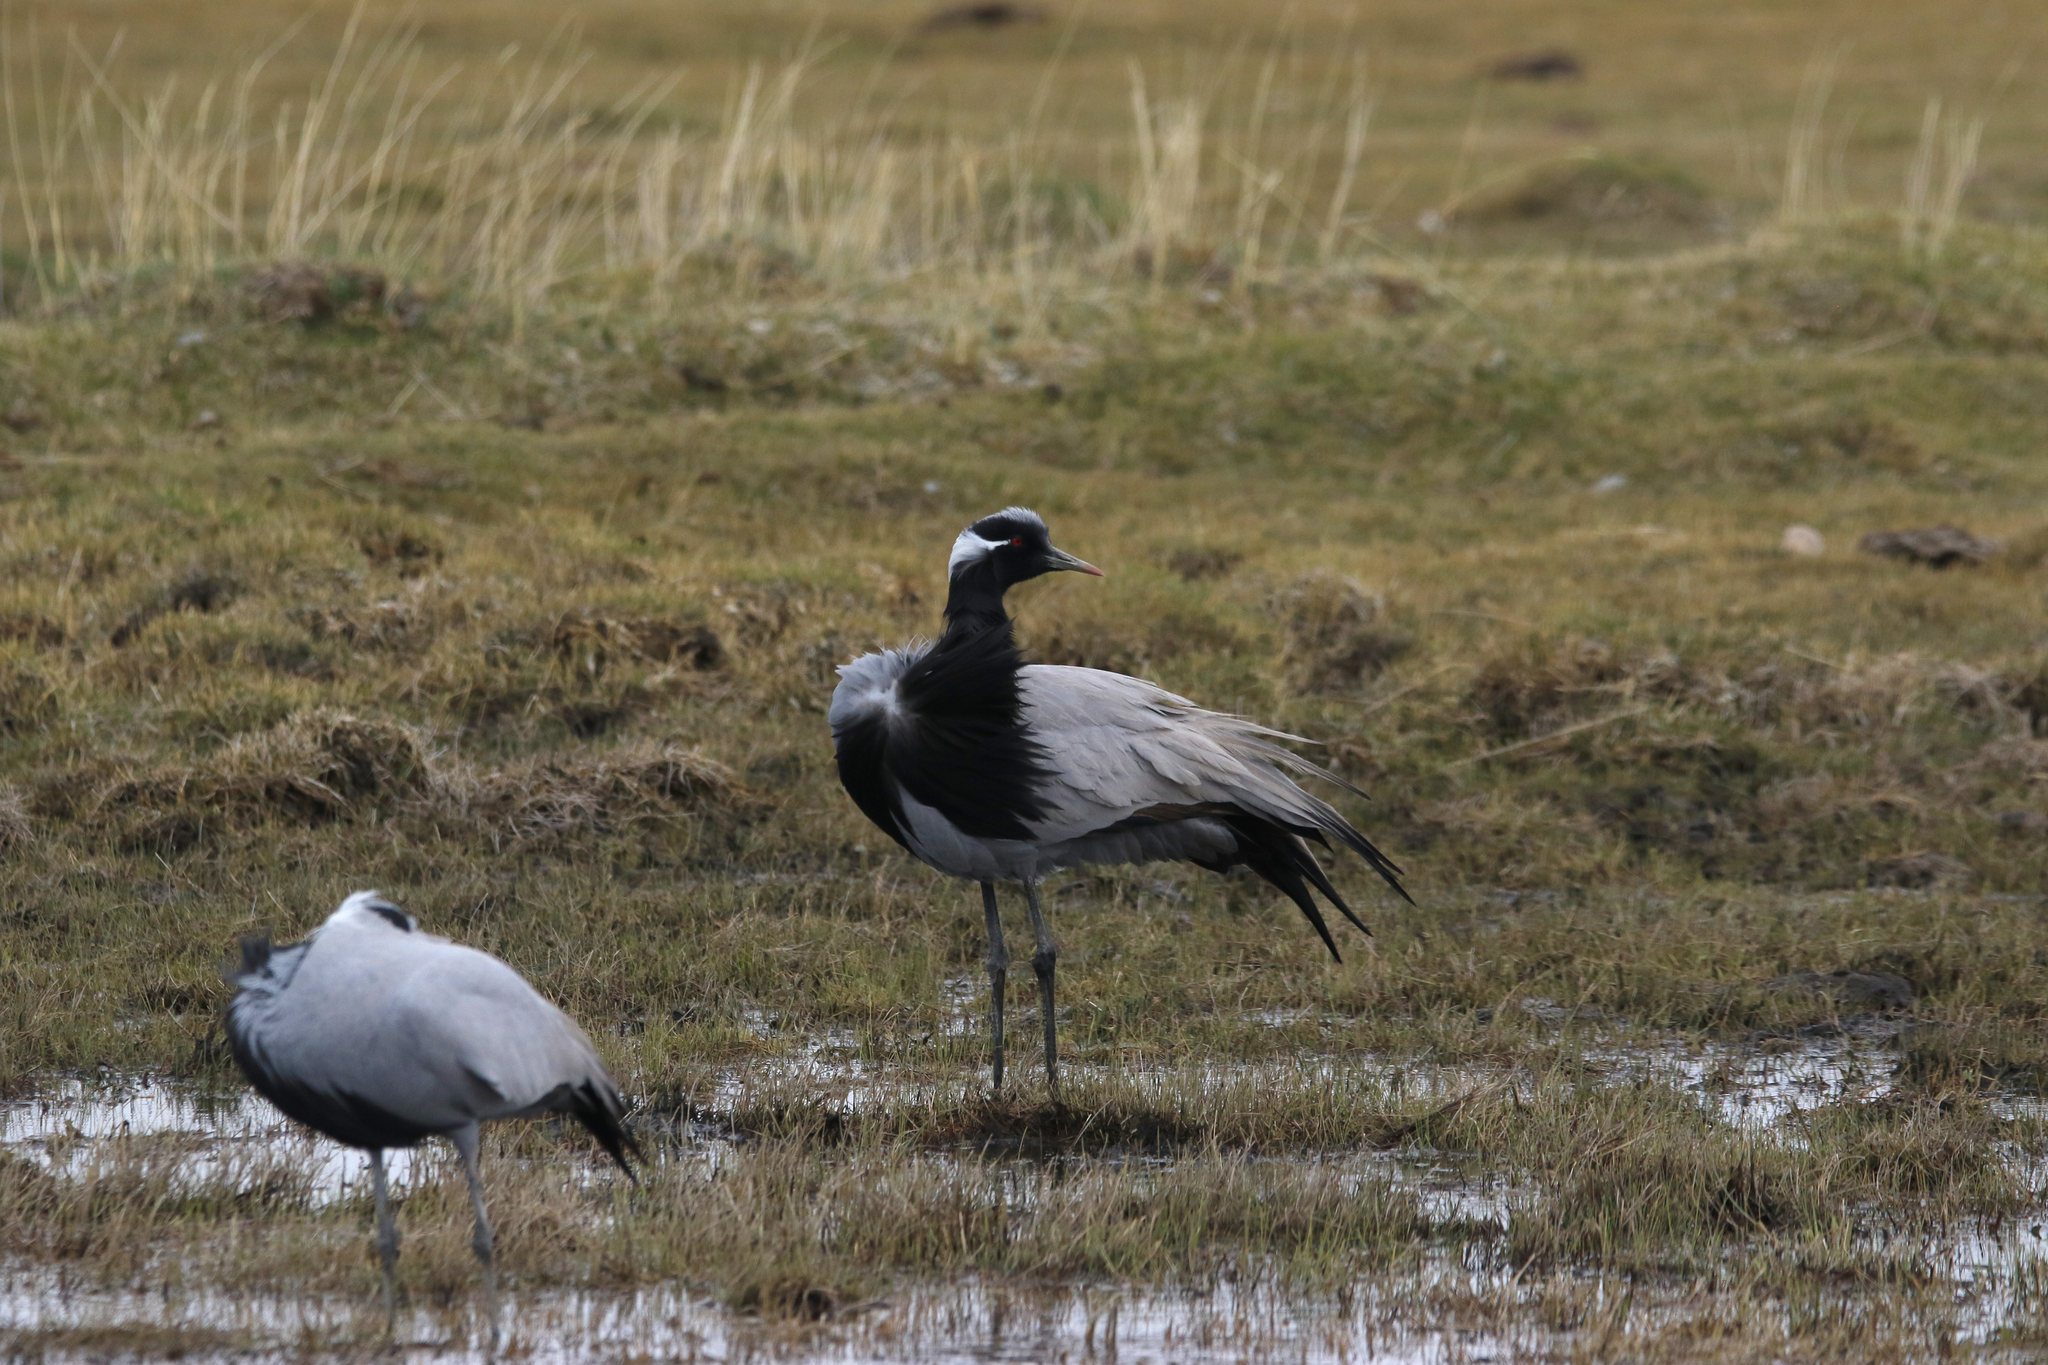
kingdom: Animalia
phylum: Chordata
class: Aves
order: Gruiformes
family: Gruidae
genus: Anthropoides
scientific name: Anthropoides virgo
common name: Demoiselle crane
